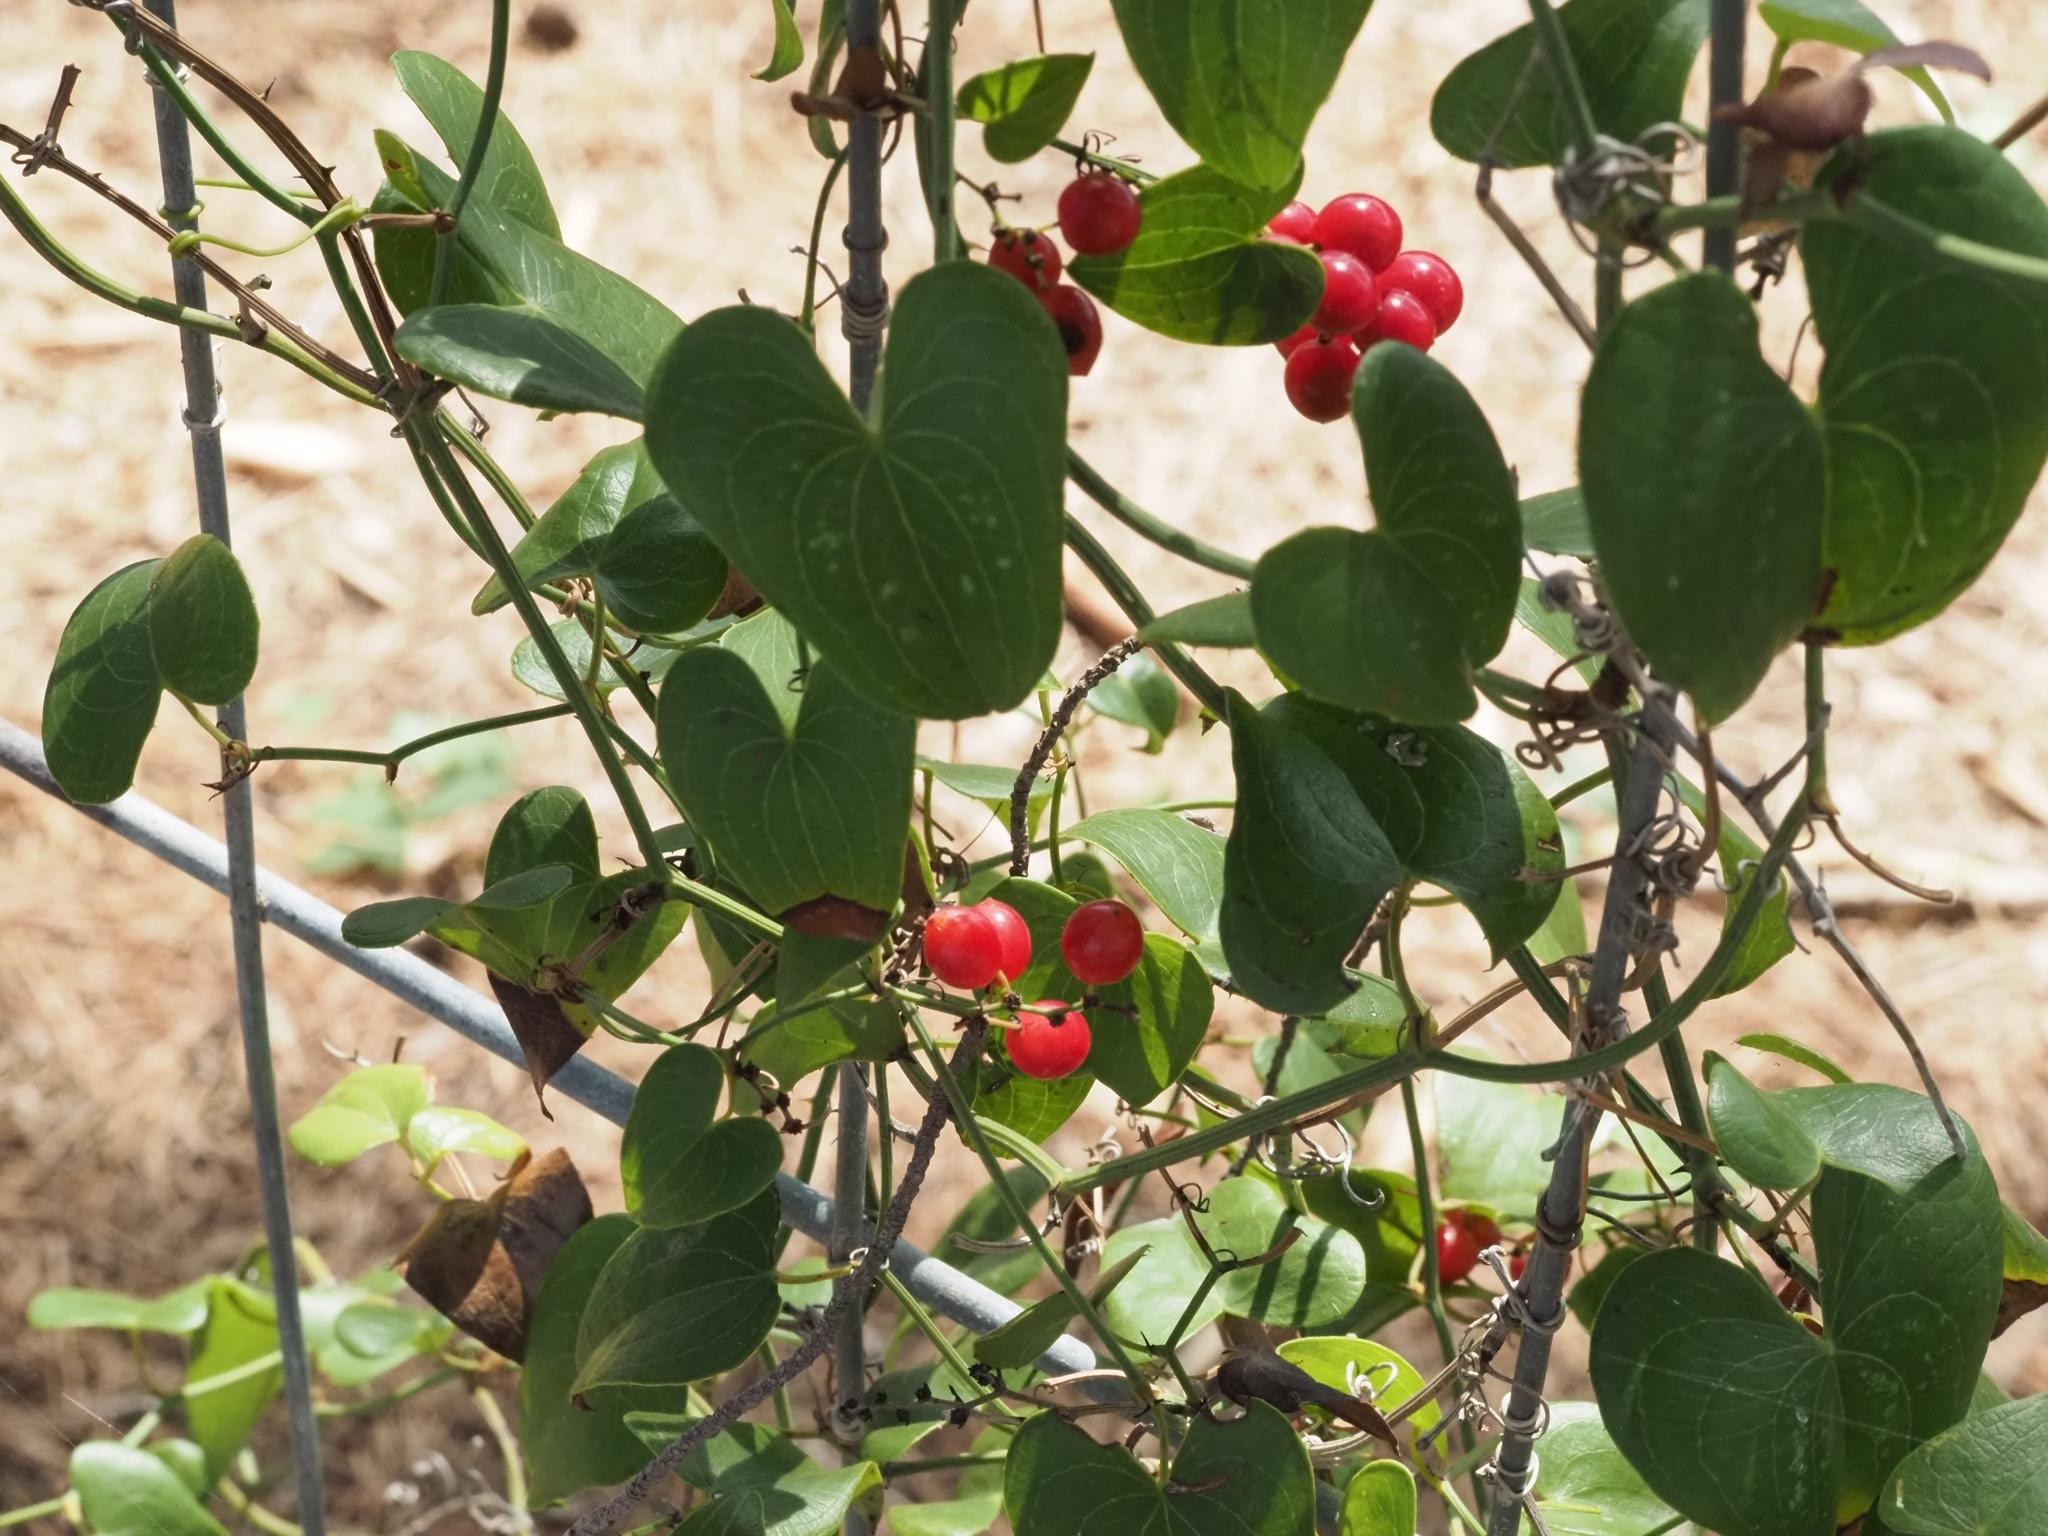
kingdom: Plantae
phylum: Tracheophyta
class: Liliopsida
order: Liliales
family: Smilacaceae
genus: Smilax
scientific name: Smilax aspera
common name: Common smilax
